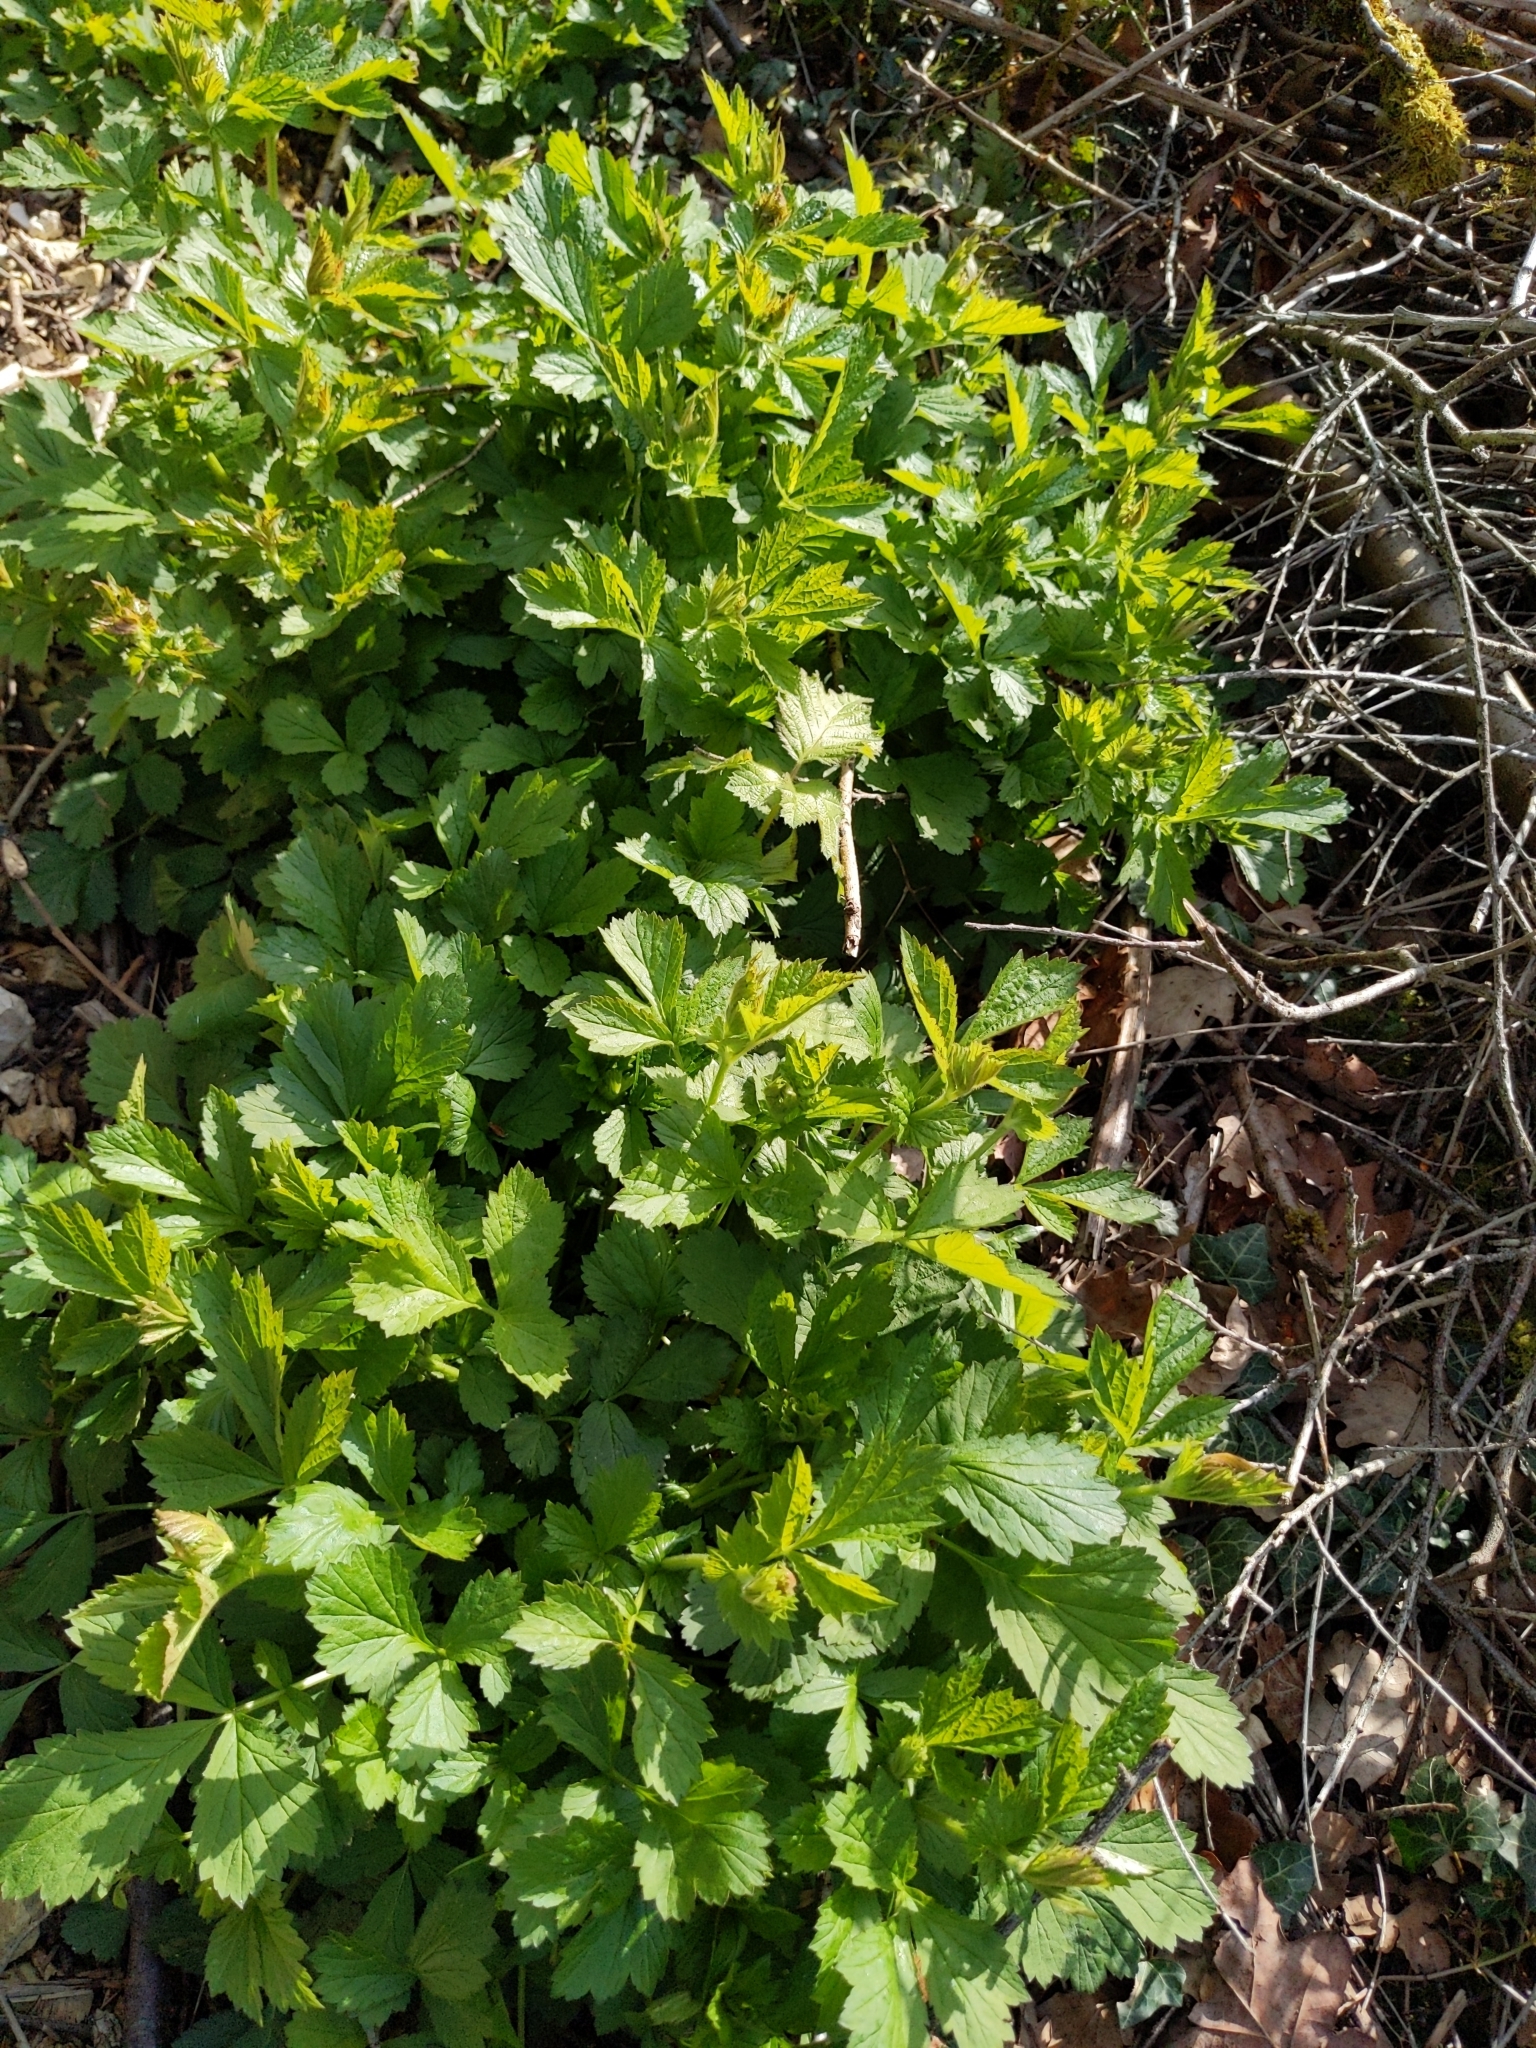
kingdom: Plantae
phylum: Tracheophyta
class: Magnoliopsida
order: Rosales
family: Rosaceae
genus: Geum
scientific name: Geum urbanum
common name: Wood avens
